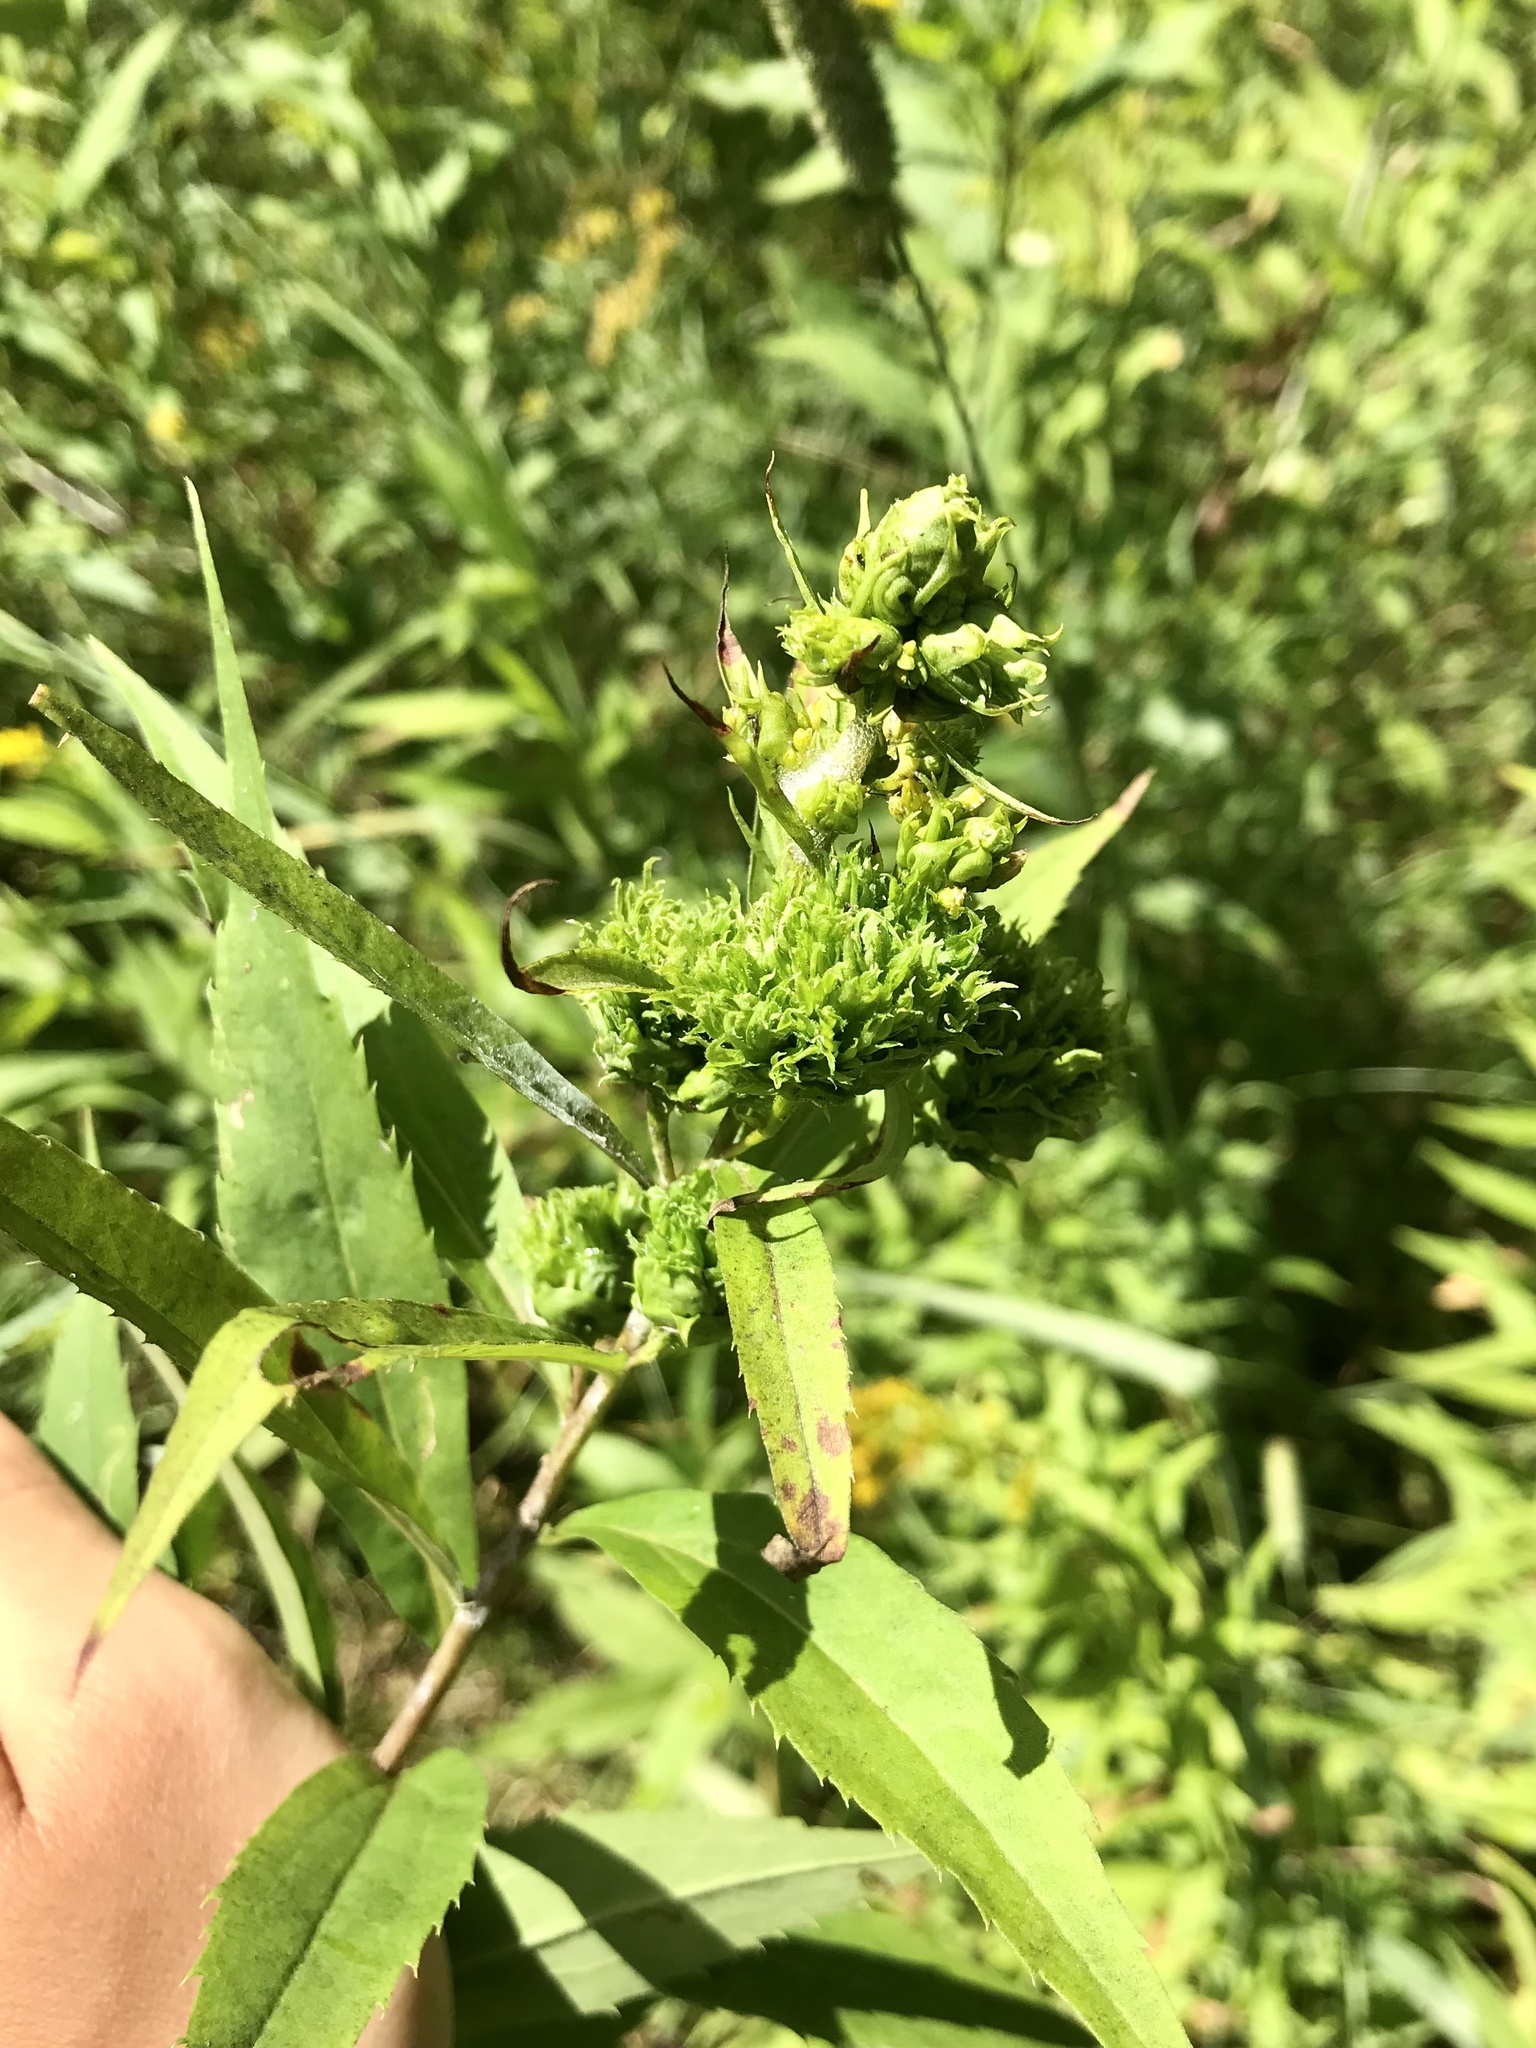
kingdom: Animalia
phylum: Arthropoda
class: Insecta
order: Diptera
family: Cecidomyiidae
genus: Rhopalomyia
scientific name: Rhopalomyia capitata
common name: Giant goldenrod bunch gall midge
